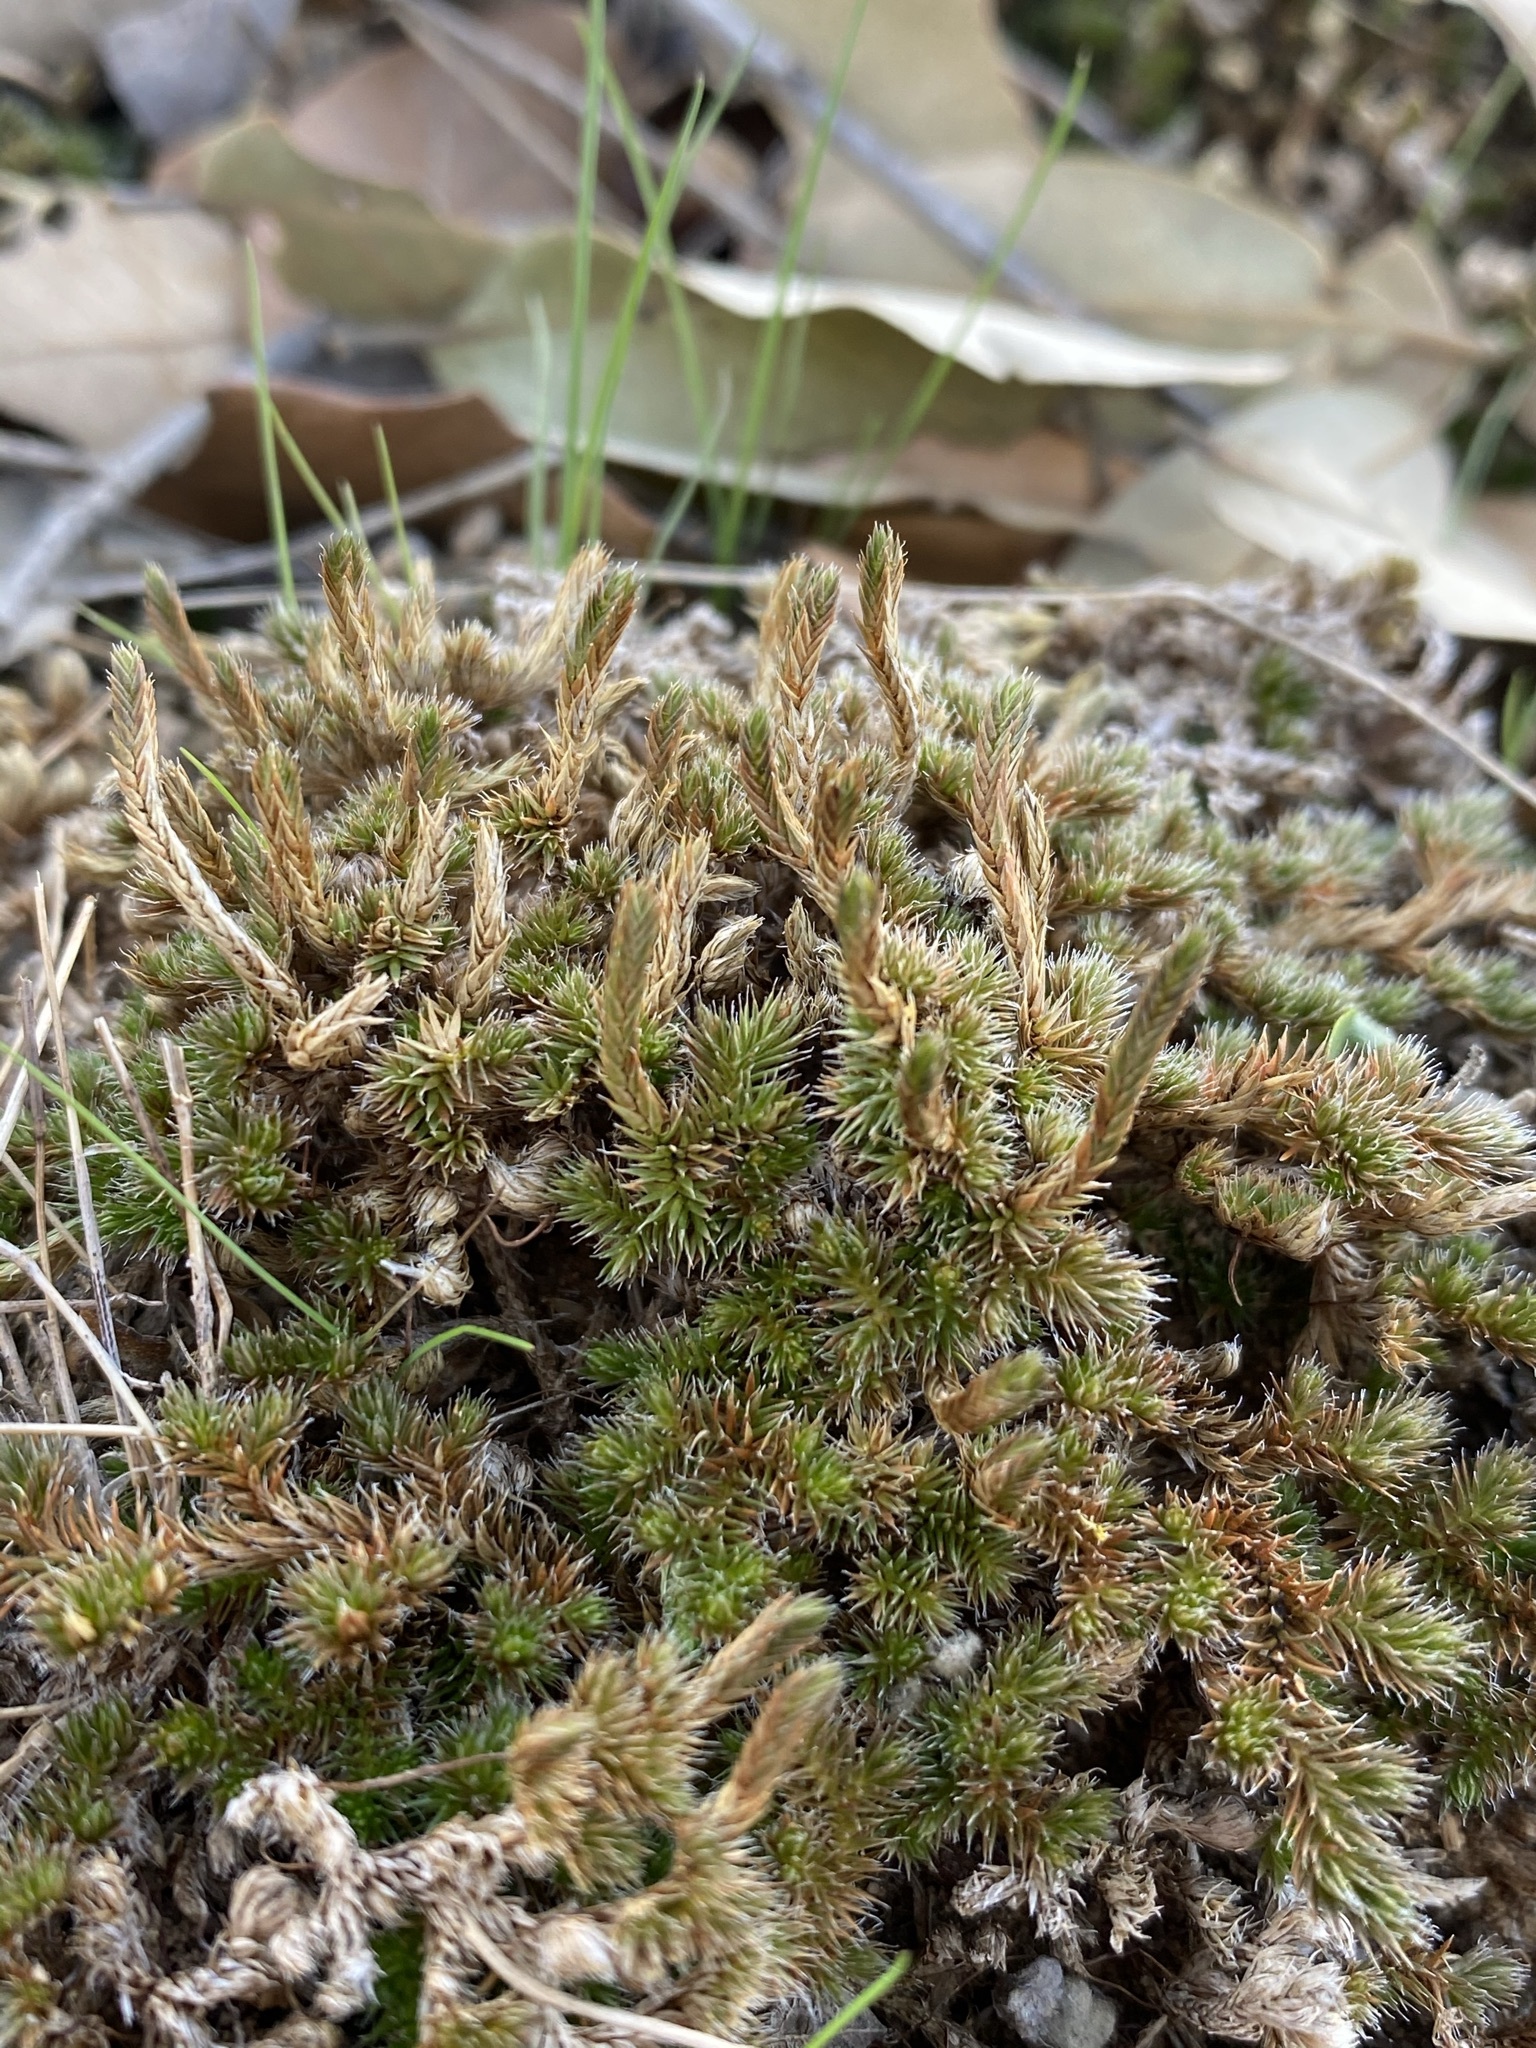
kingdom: Plantae
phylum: Tracheophyta
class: Lycopodiopsida
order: Selaginellales
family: Selaginellaceae
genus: Selaginella
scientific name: Selaginella peruviana
